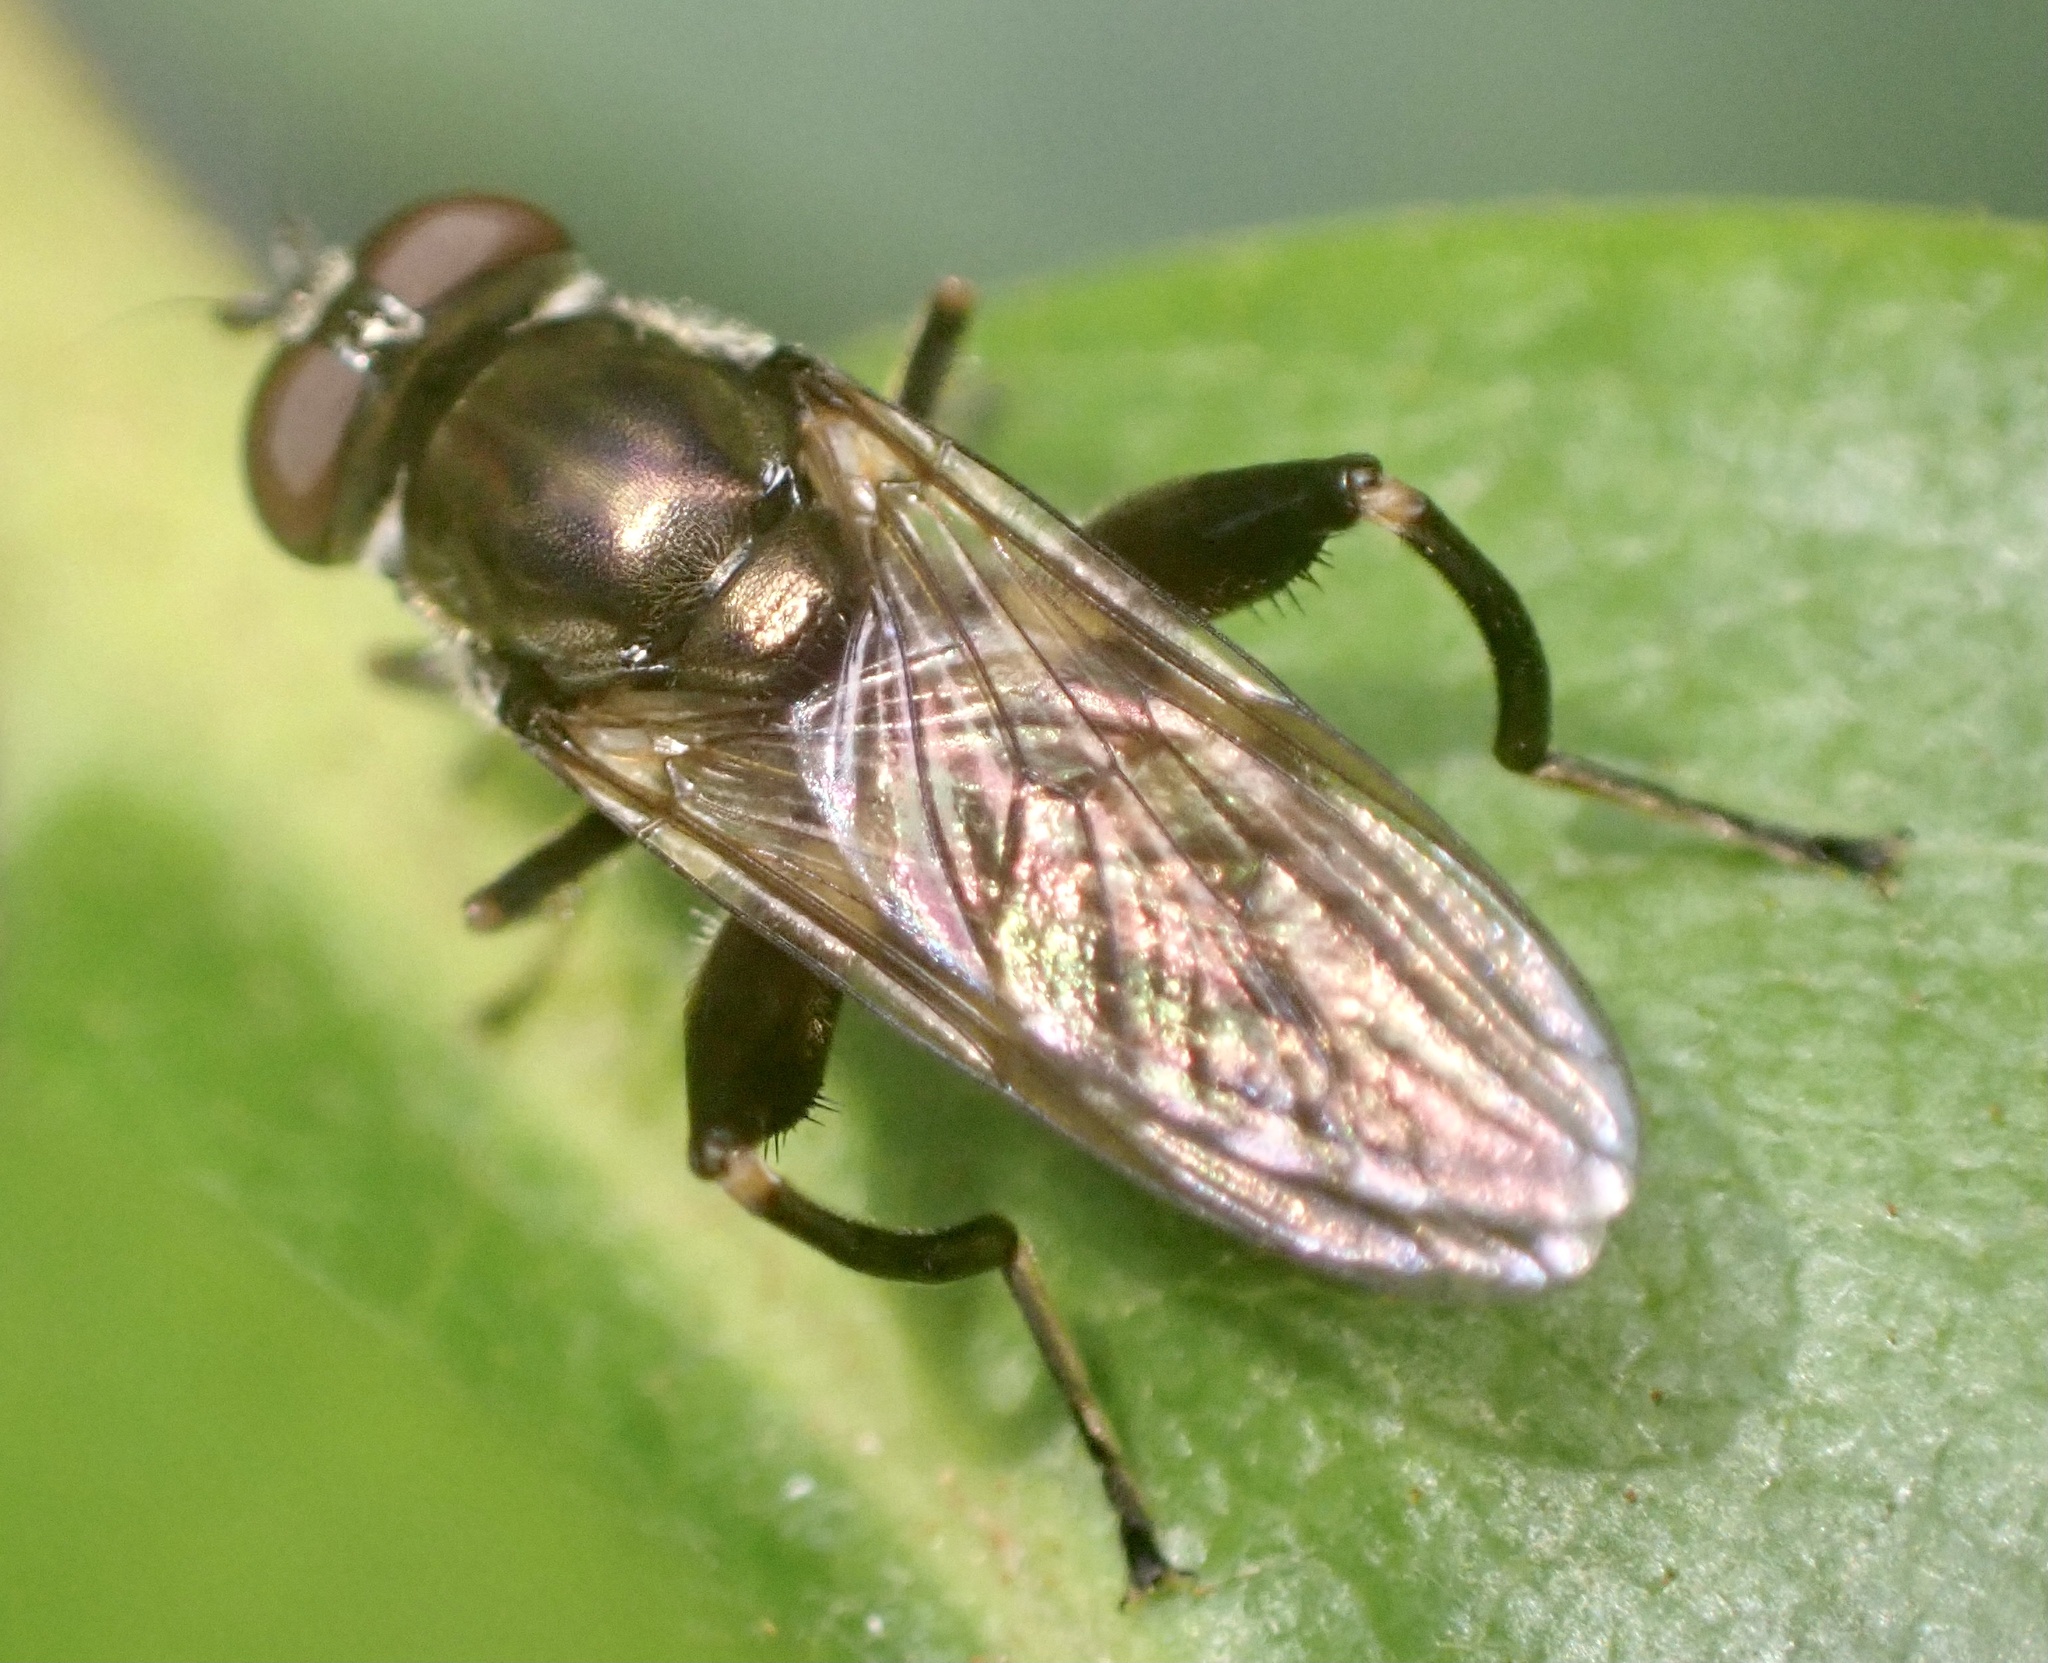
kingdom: Animalia
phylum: Arthropoda
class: Insecta
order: Diptera
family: Syrphidae
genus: Chalcosyrphus
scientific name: Chalcosyrphus nemorum
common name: Dusky-banded forest fly
